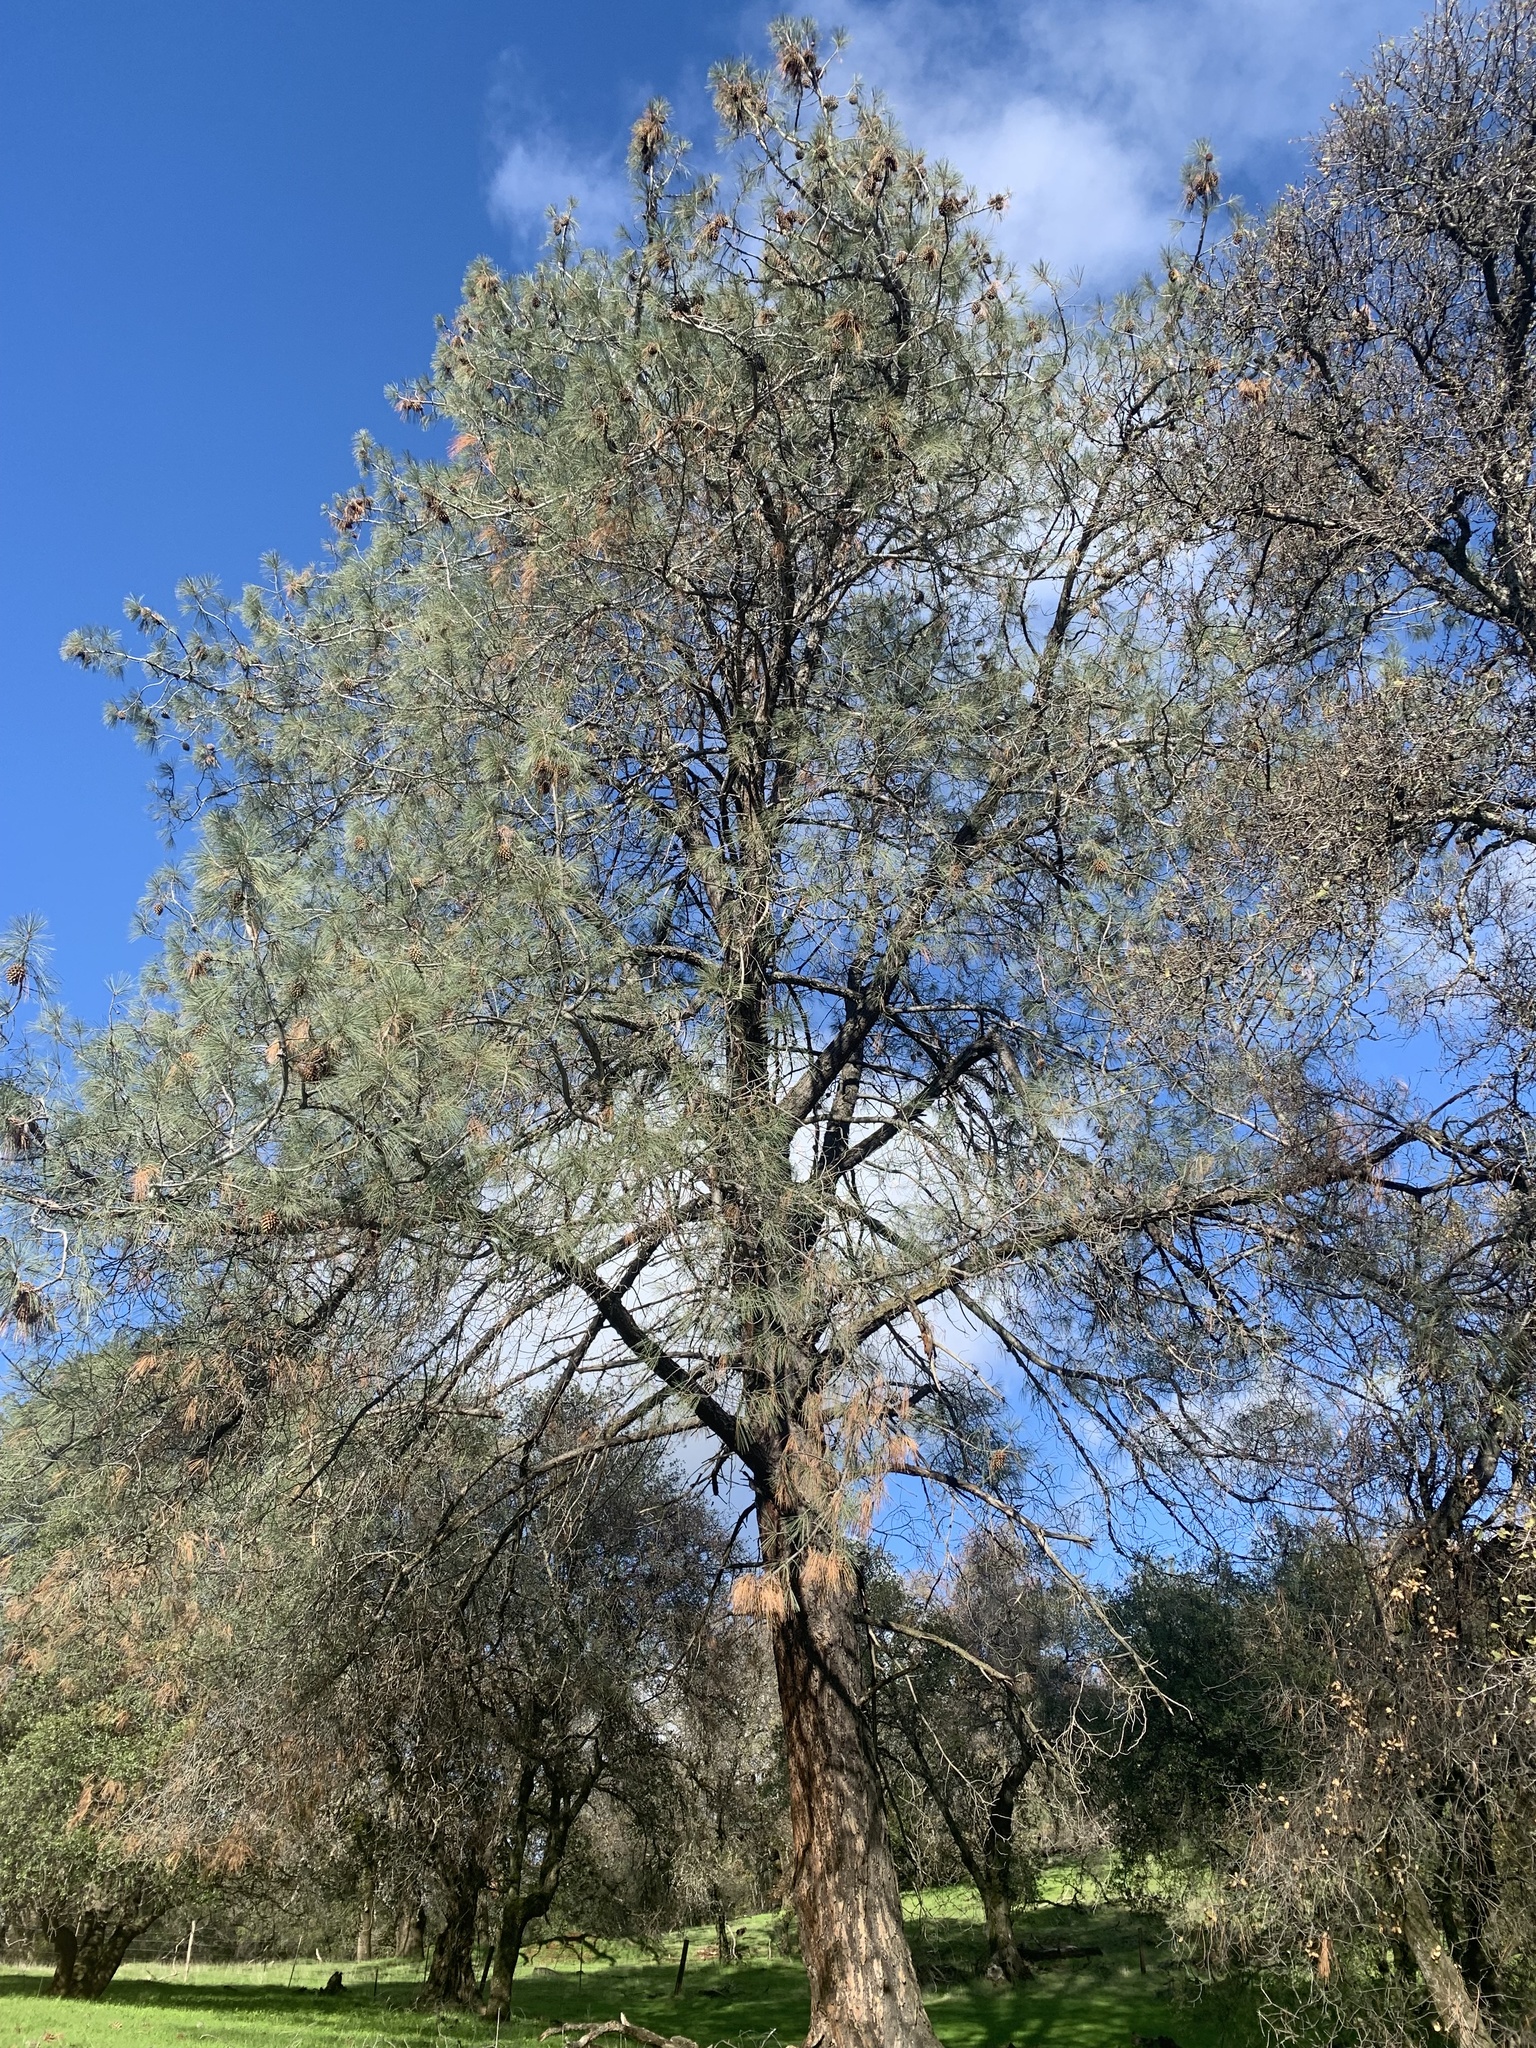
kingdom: Plantae
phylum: Tracheophyta
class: Pinopsida
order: Pinales
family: Pinaceae
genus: Pinus
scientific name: Pinus sabiniana
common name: Bull pine
